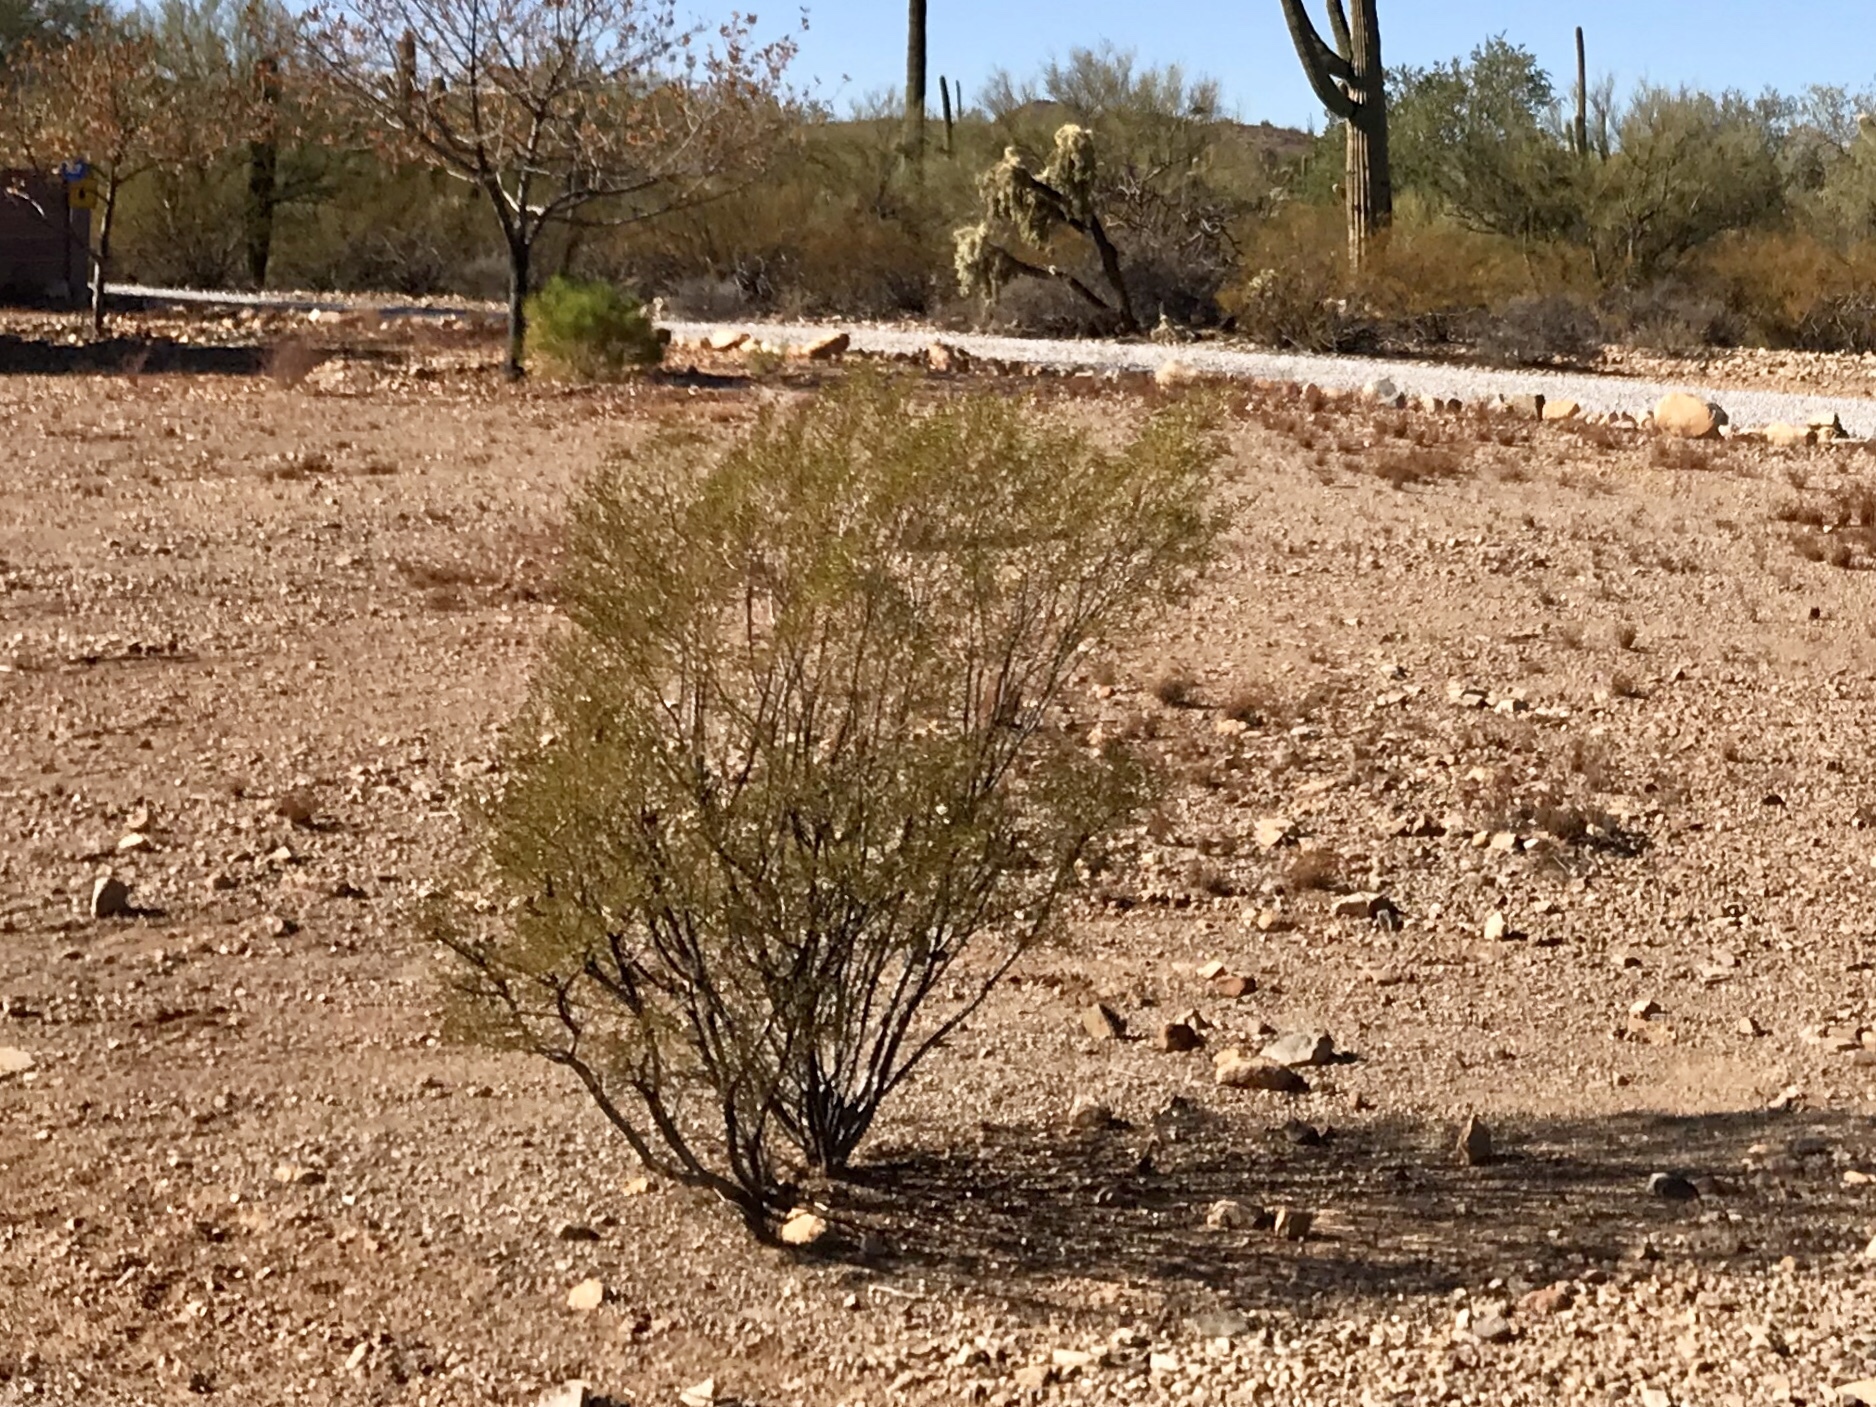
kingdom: Plantae
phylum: Tracheophyta
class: Magnoliopsida
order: Zygophyllales
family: Zygophyllaceae
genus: Larrea
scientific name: Larrea tridentata
